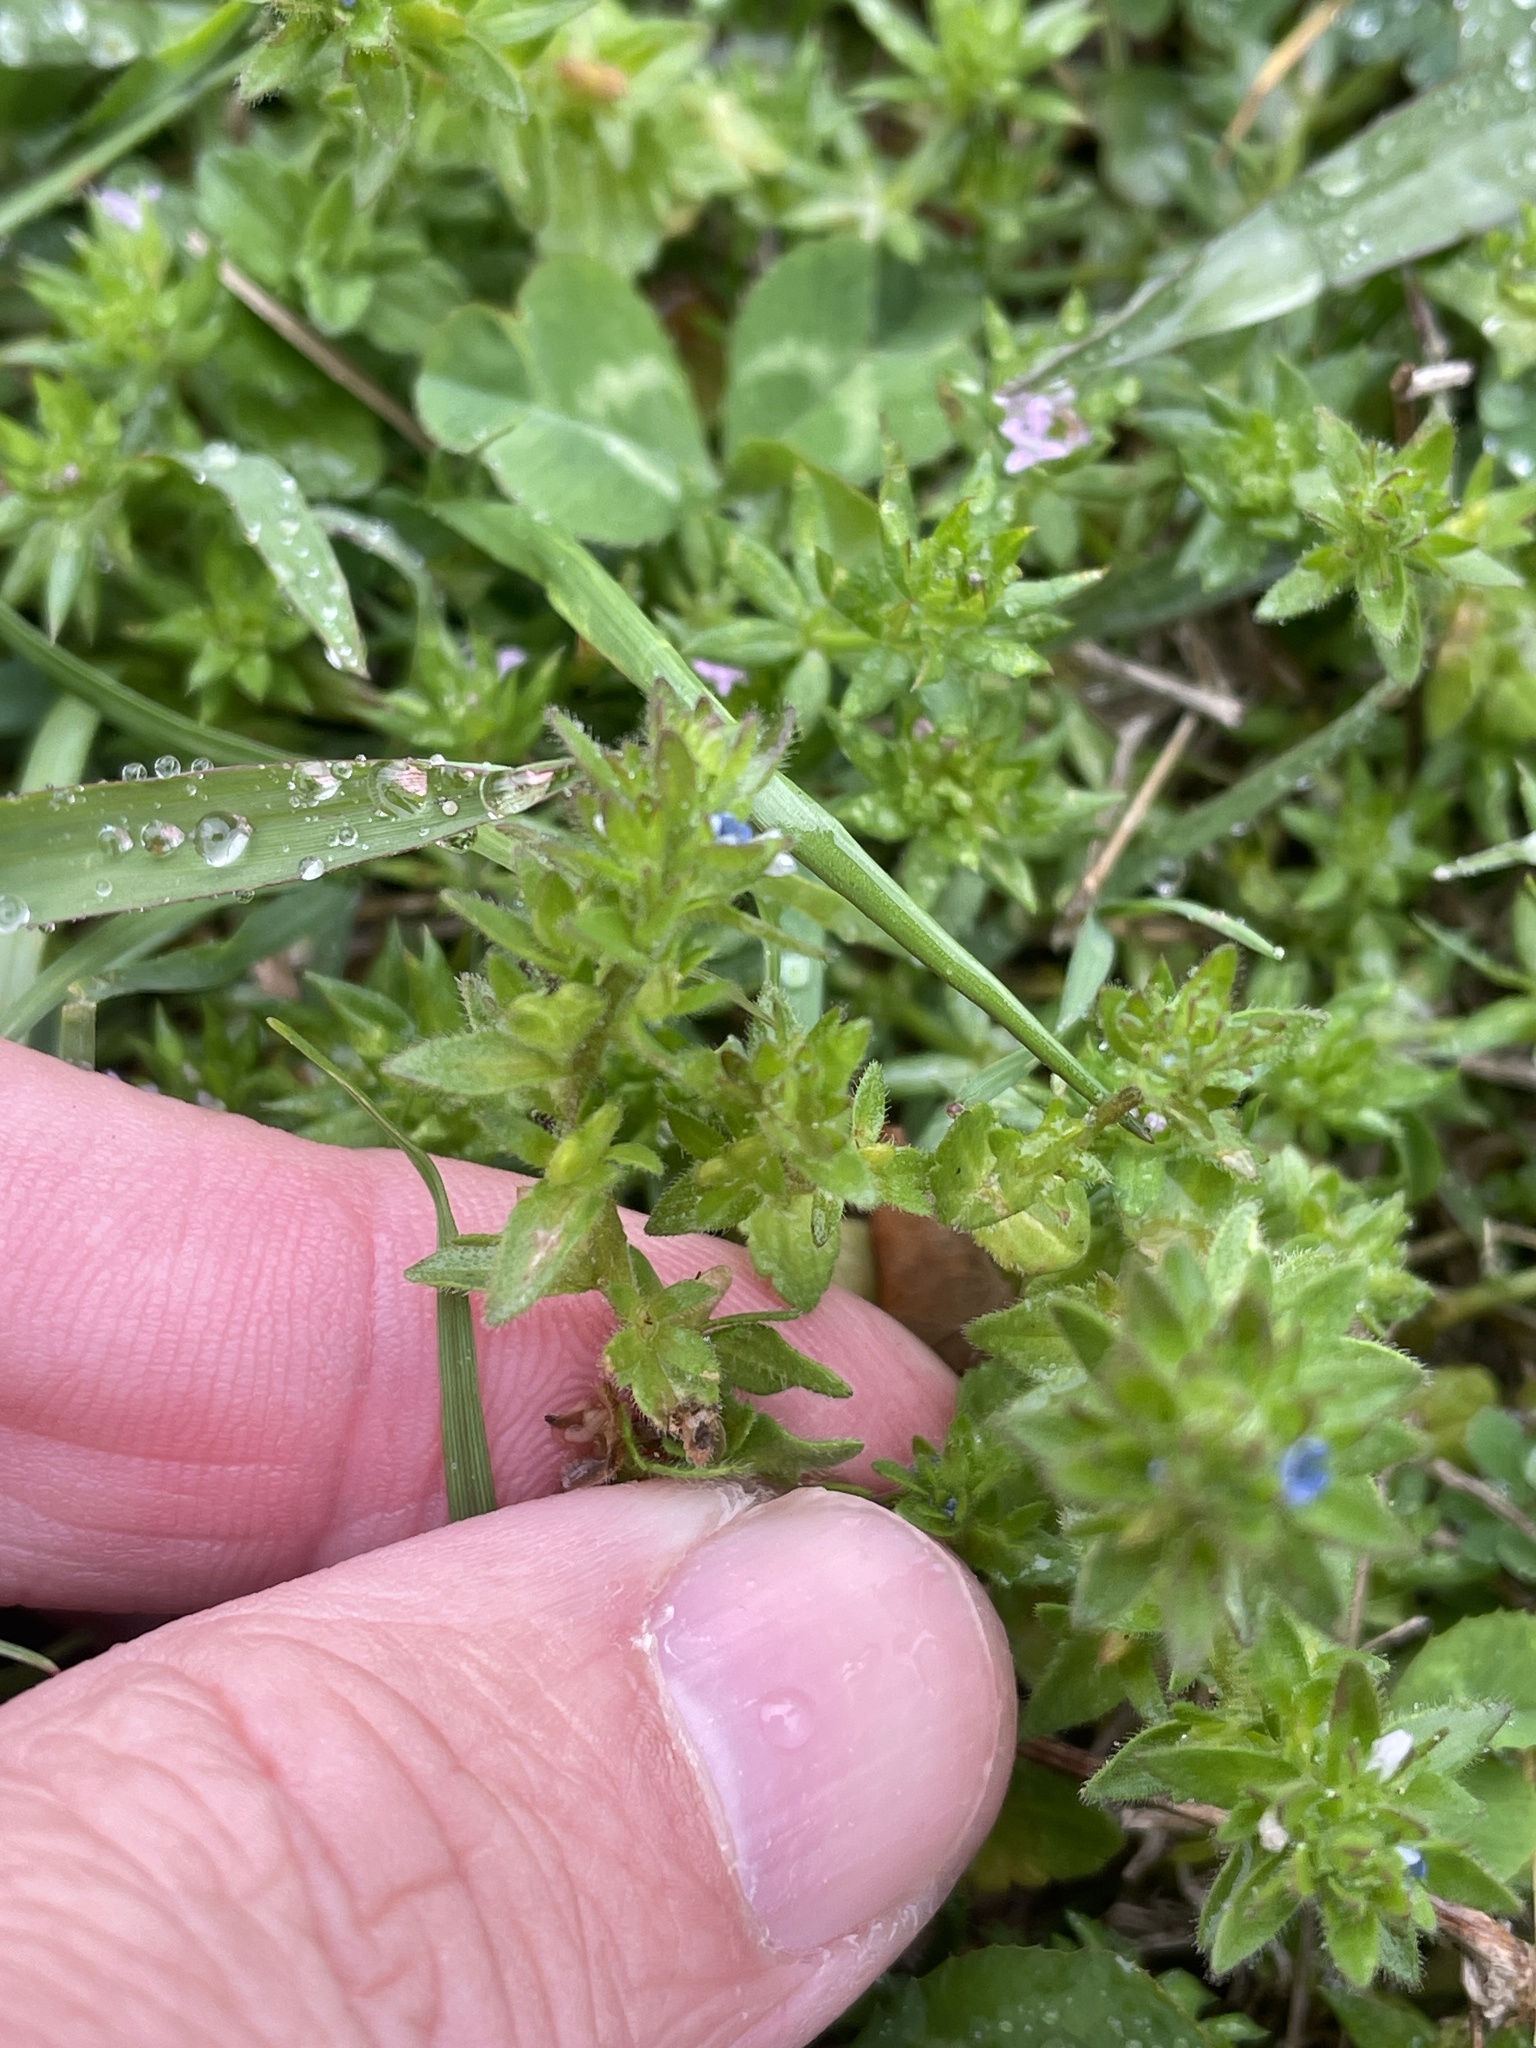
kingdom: Plantae
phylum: Tracheophyta
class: Magnoliopsida
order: Lamiales
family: Plantaginaceae
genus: Veronica
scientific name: Veronica arvensis
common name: Corn speedwell
